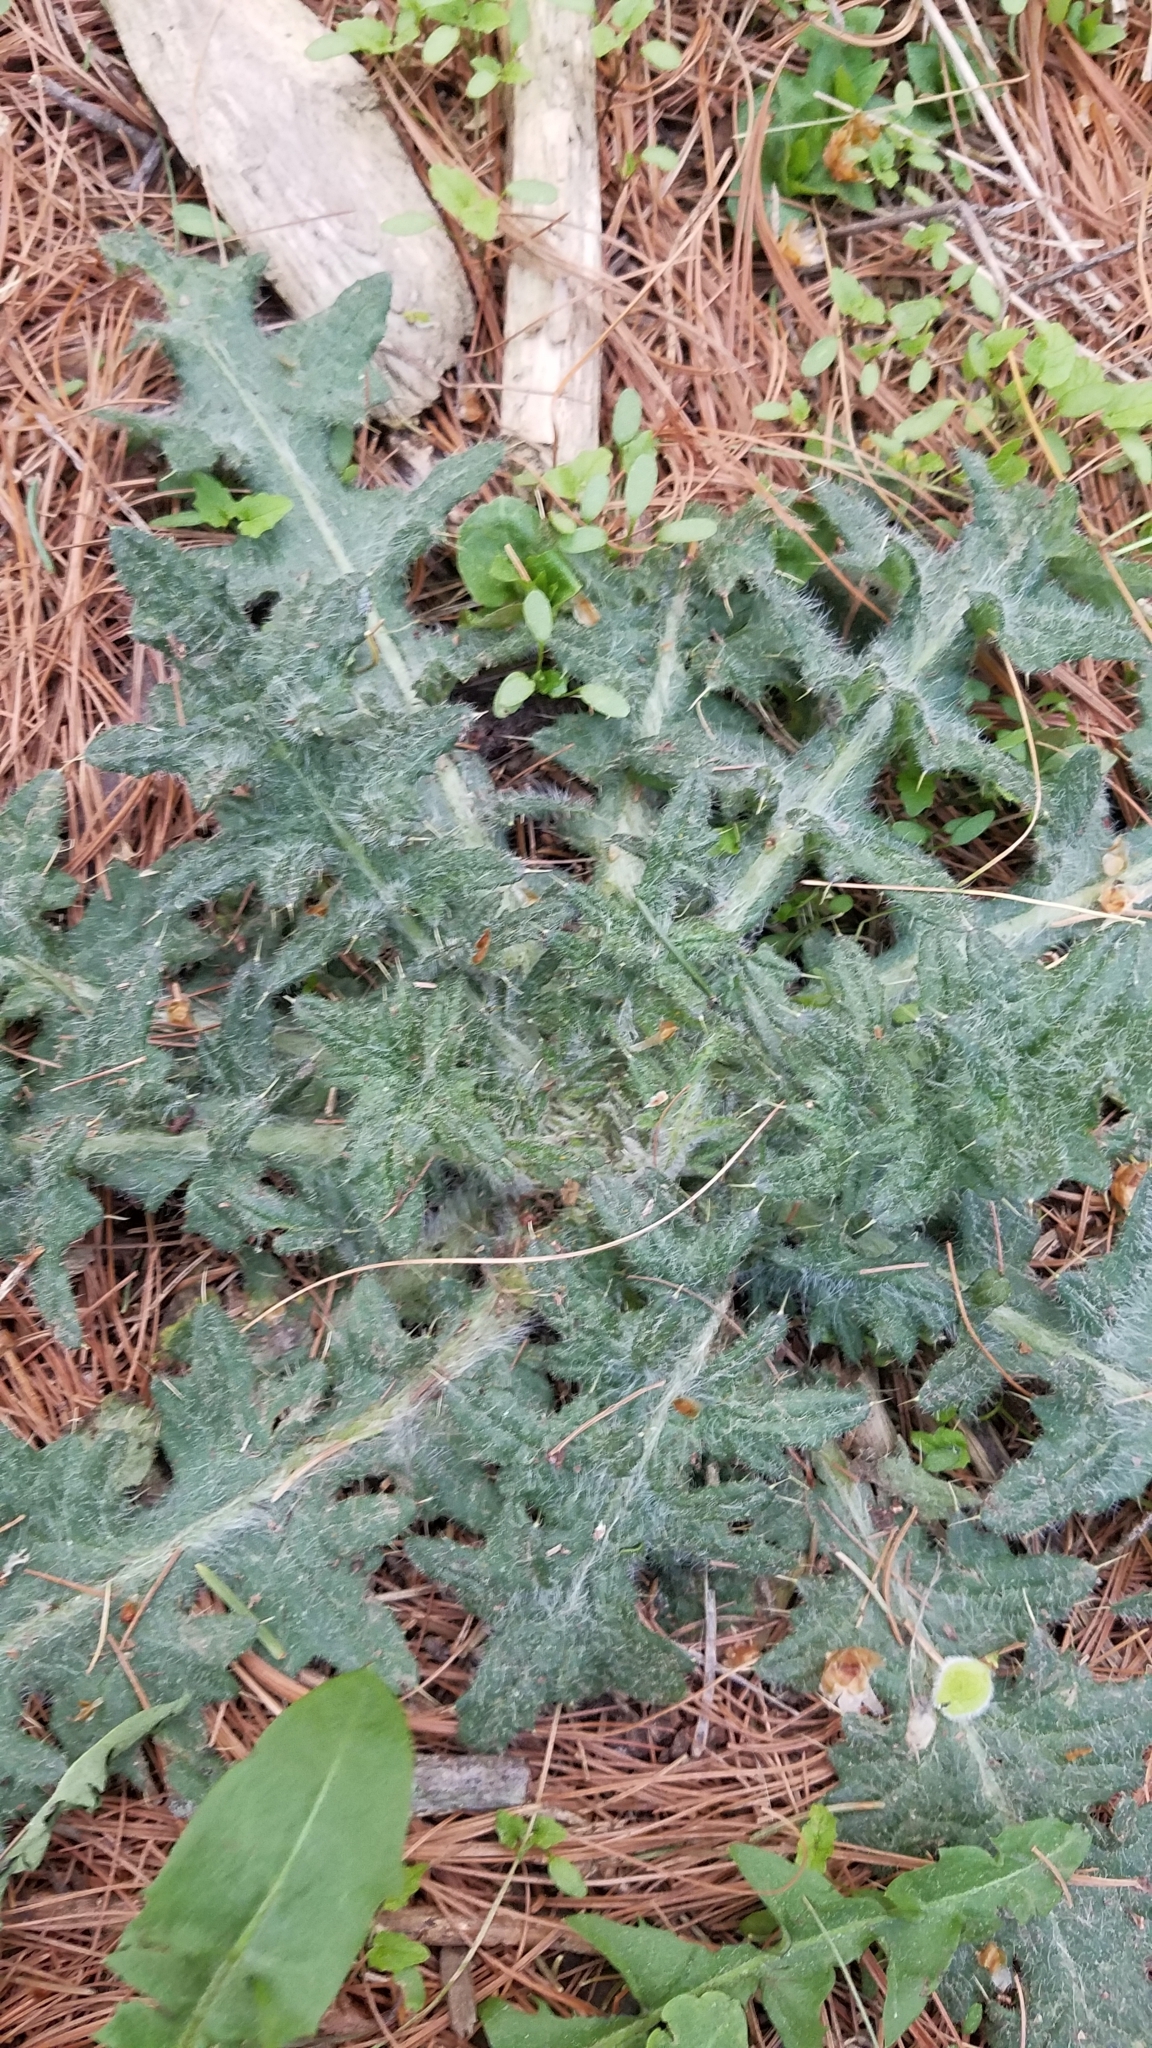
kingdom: Plantae
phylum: Tracheophyta
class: Magnoliopsida
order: Asterales
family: Asteraceae
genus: Cirsium
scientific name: Cirsium vulgare
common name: Bull thistle
